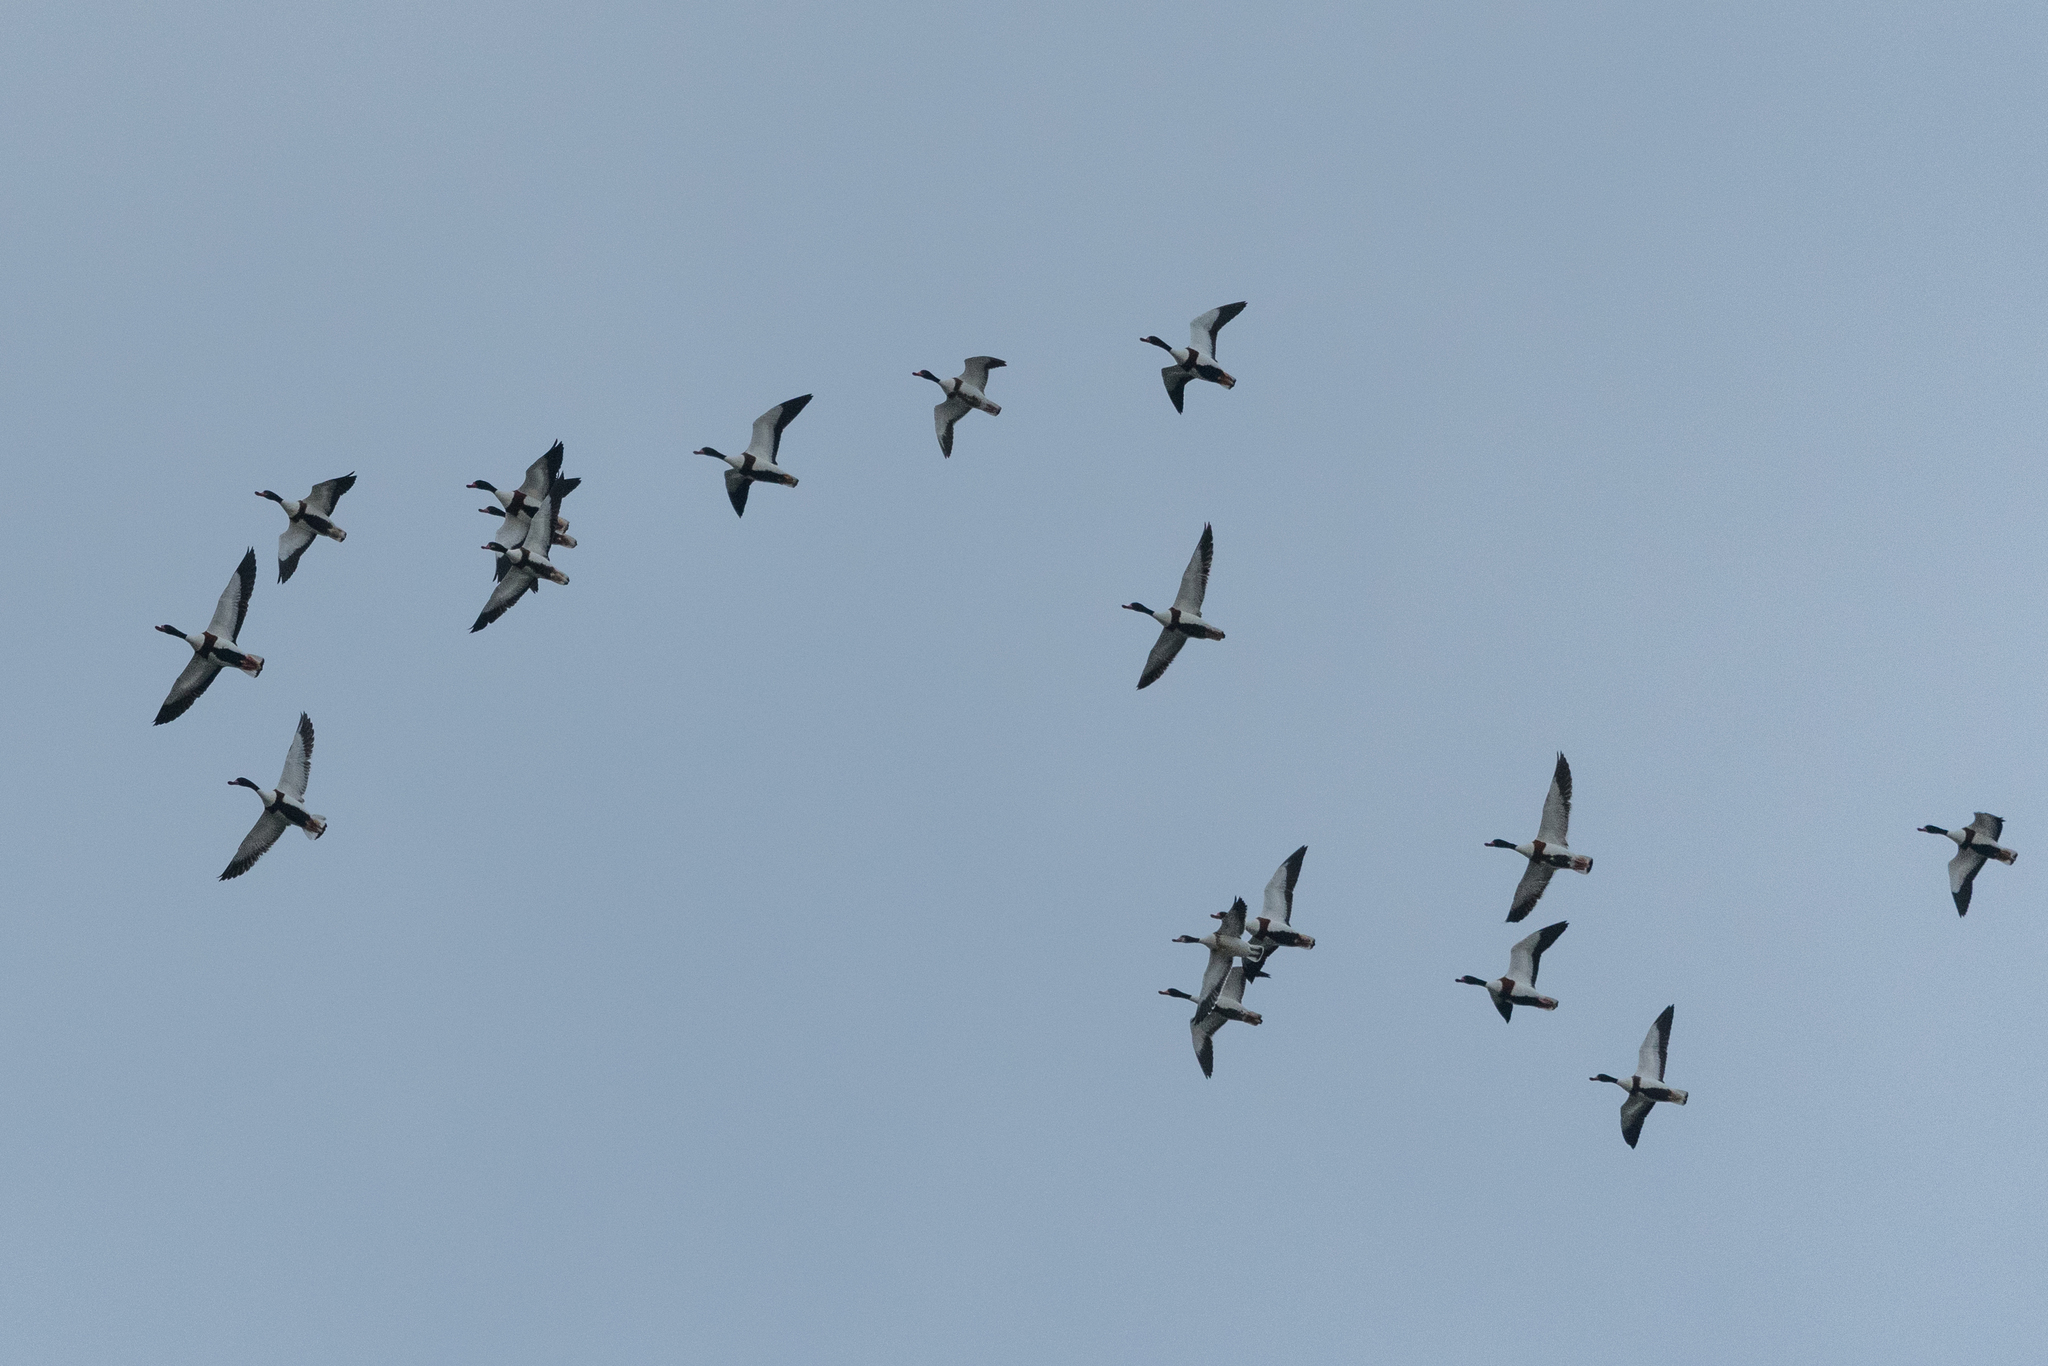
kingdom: Animalia
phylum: Chordata
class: Aves
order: Anseriformes
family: Anatidae
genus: Tadorna
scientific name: Tadorna tadorna
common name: Common shelduck
